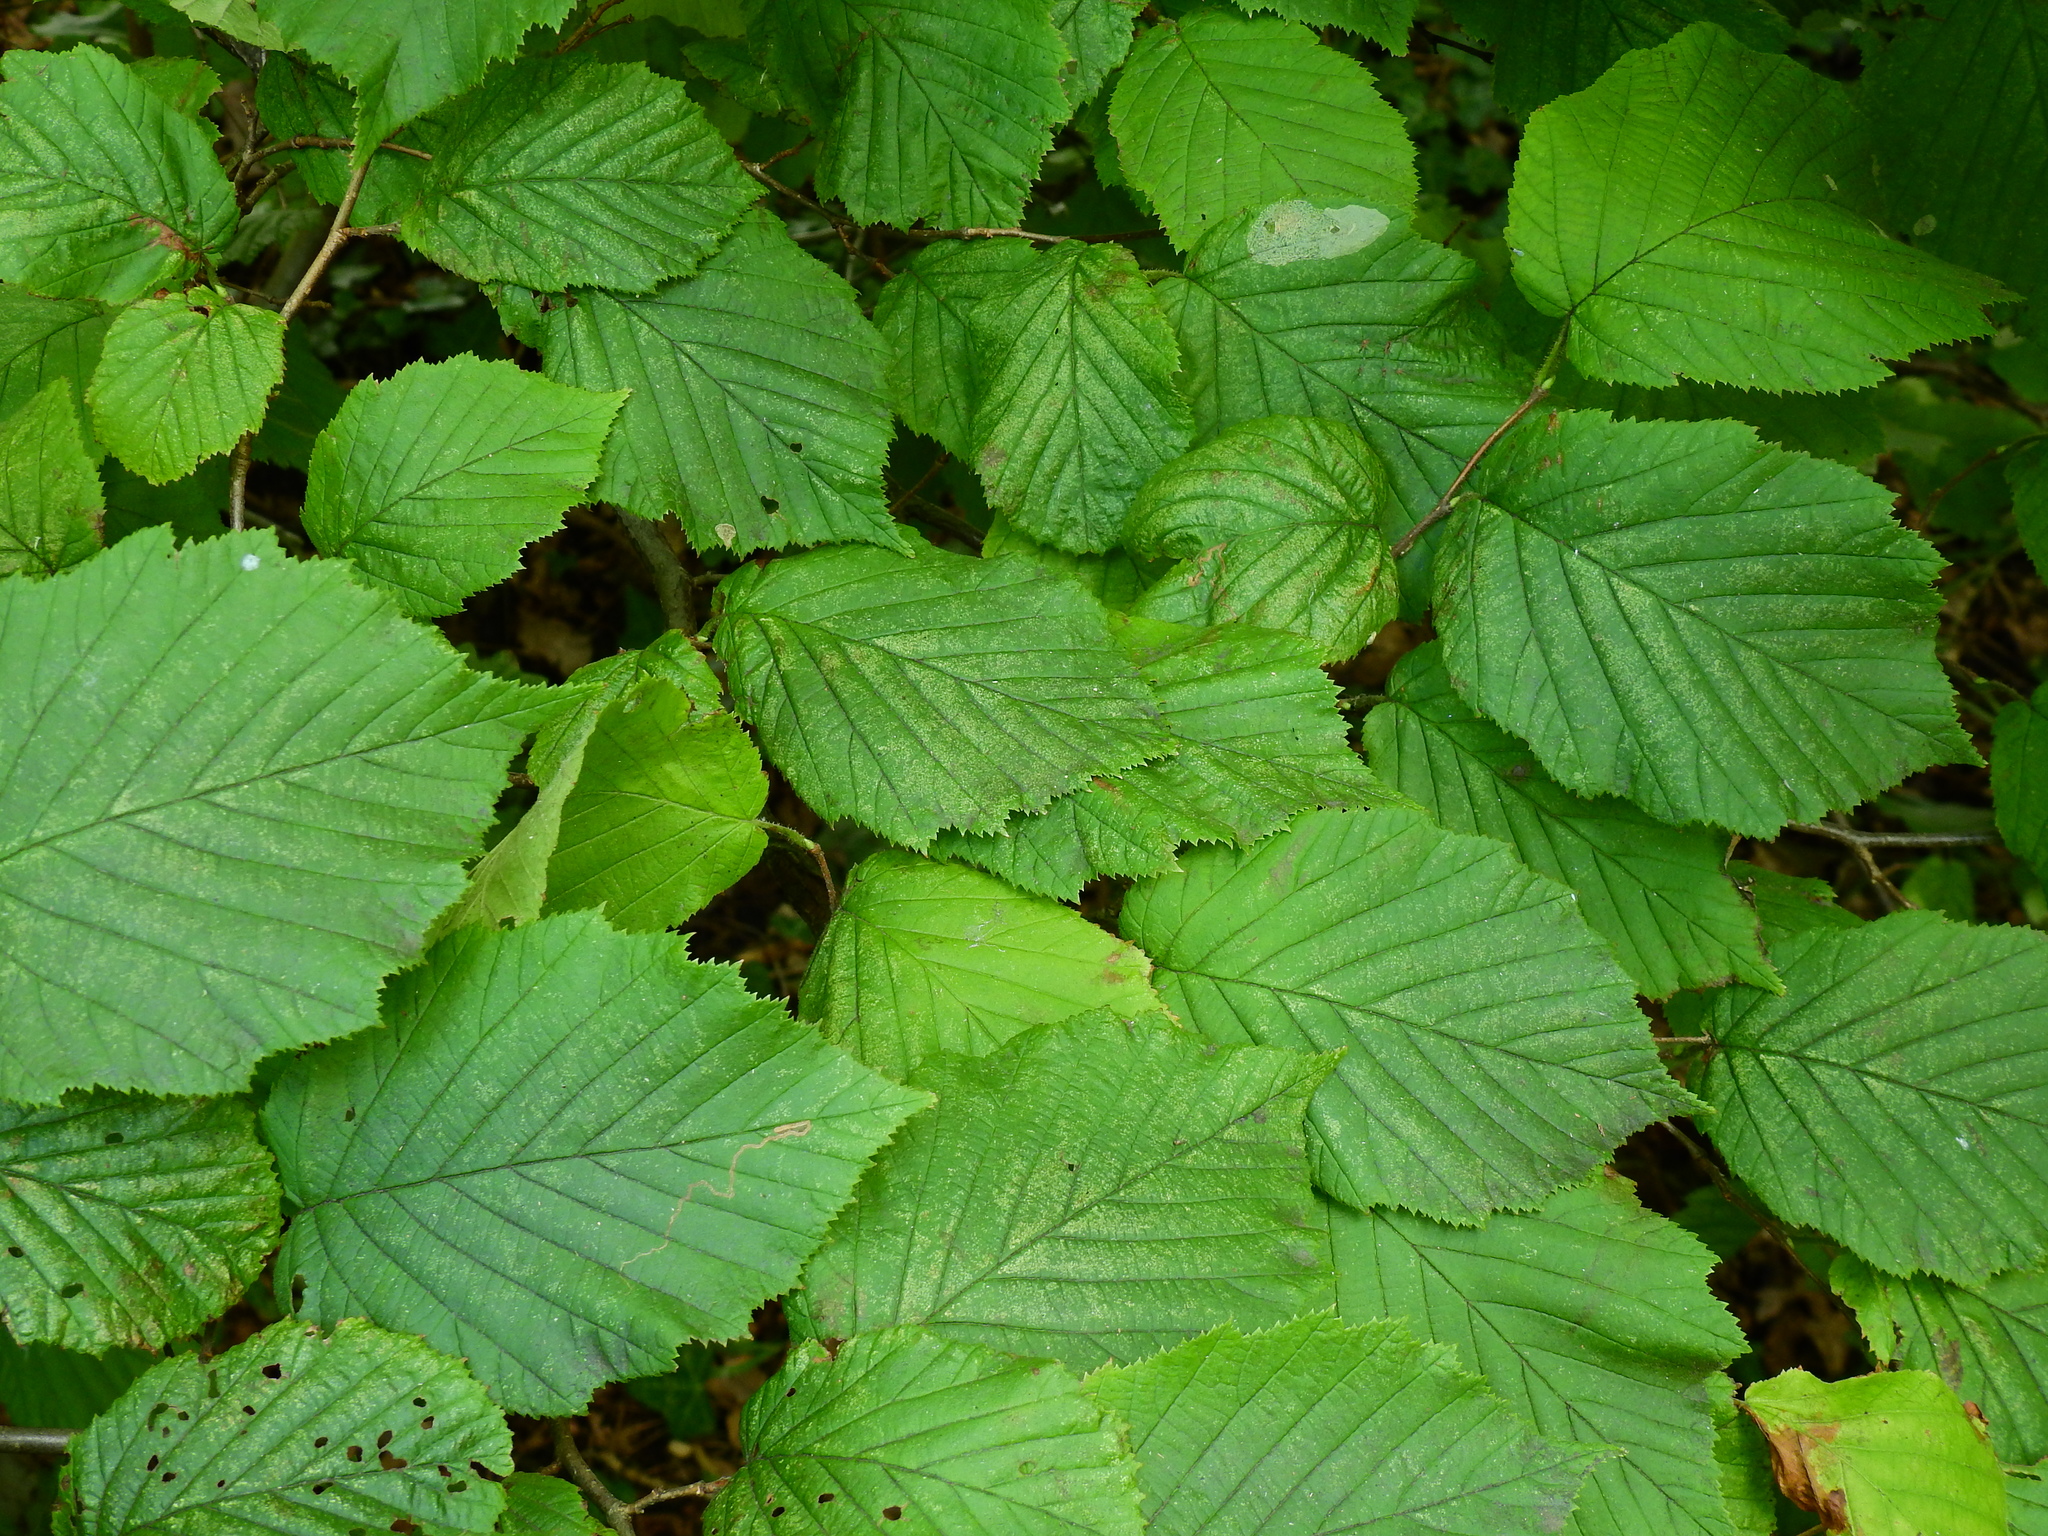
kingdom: Plantae
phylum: Tracheophyta
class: Magnoliopsida
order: Fagales
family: Betulaceae
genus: Corylus
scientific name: Corylus avellana
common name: European hazel
